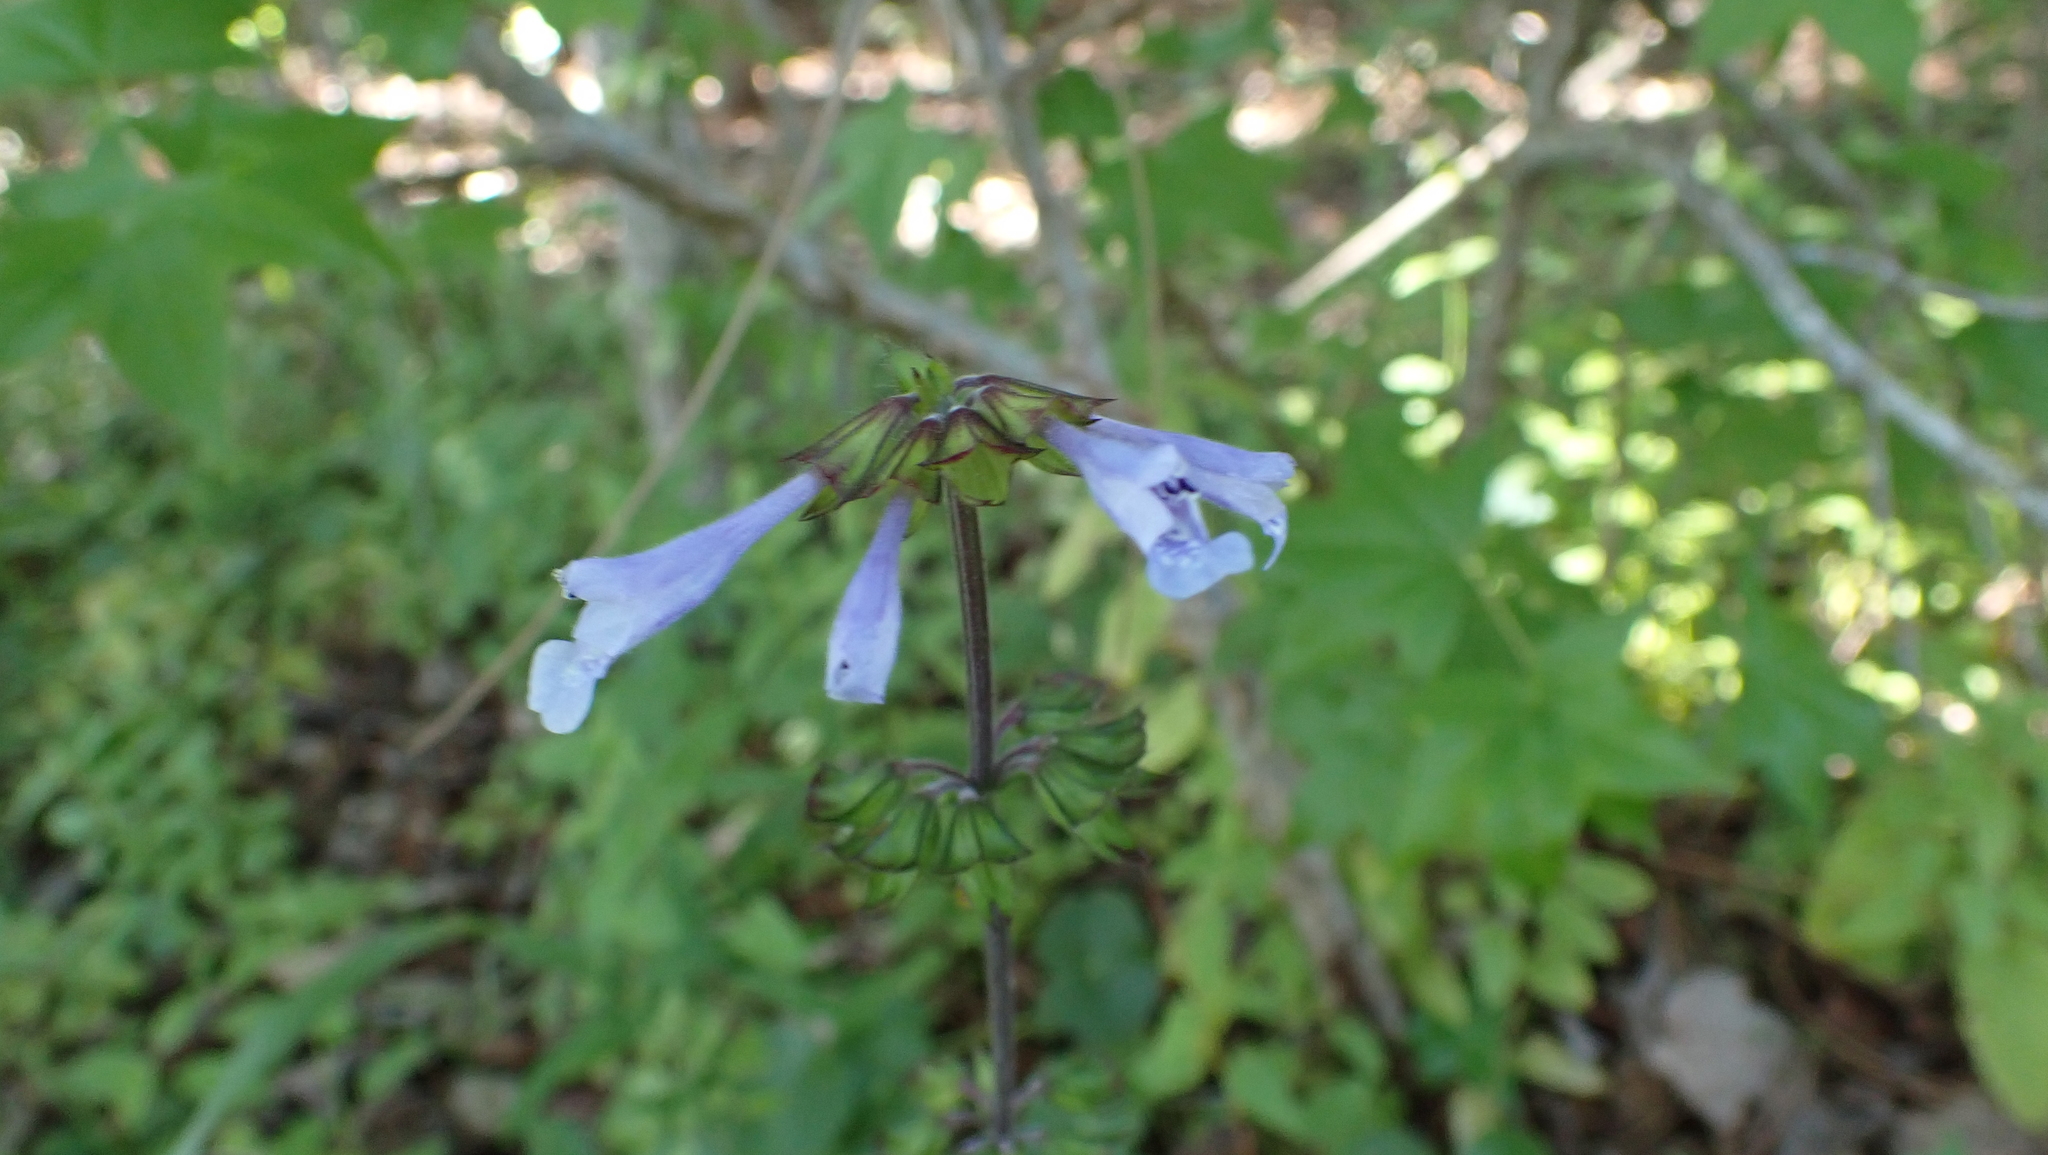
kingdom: Plantae
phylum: Tracheophyta
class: Magnoliopsida
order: Lamiales
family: Lamiaceae
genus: Salvia
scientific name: Salvia lyrata
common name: Cancerweed
